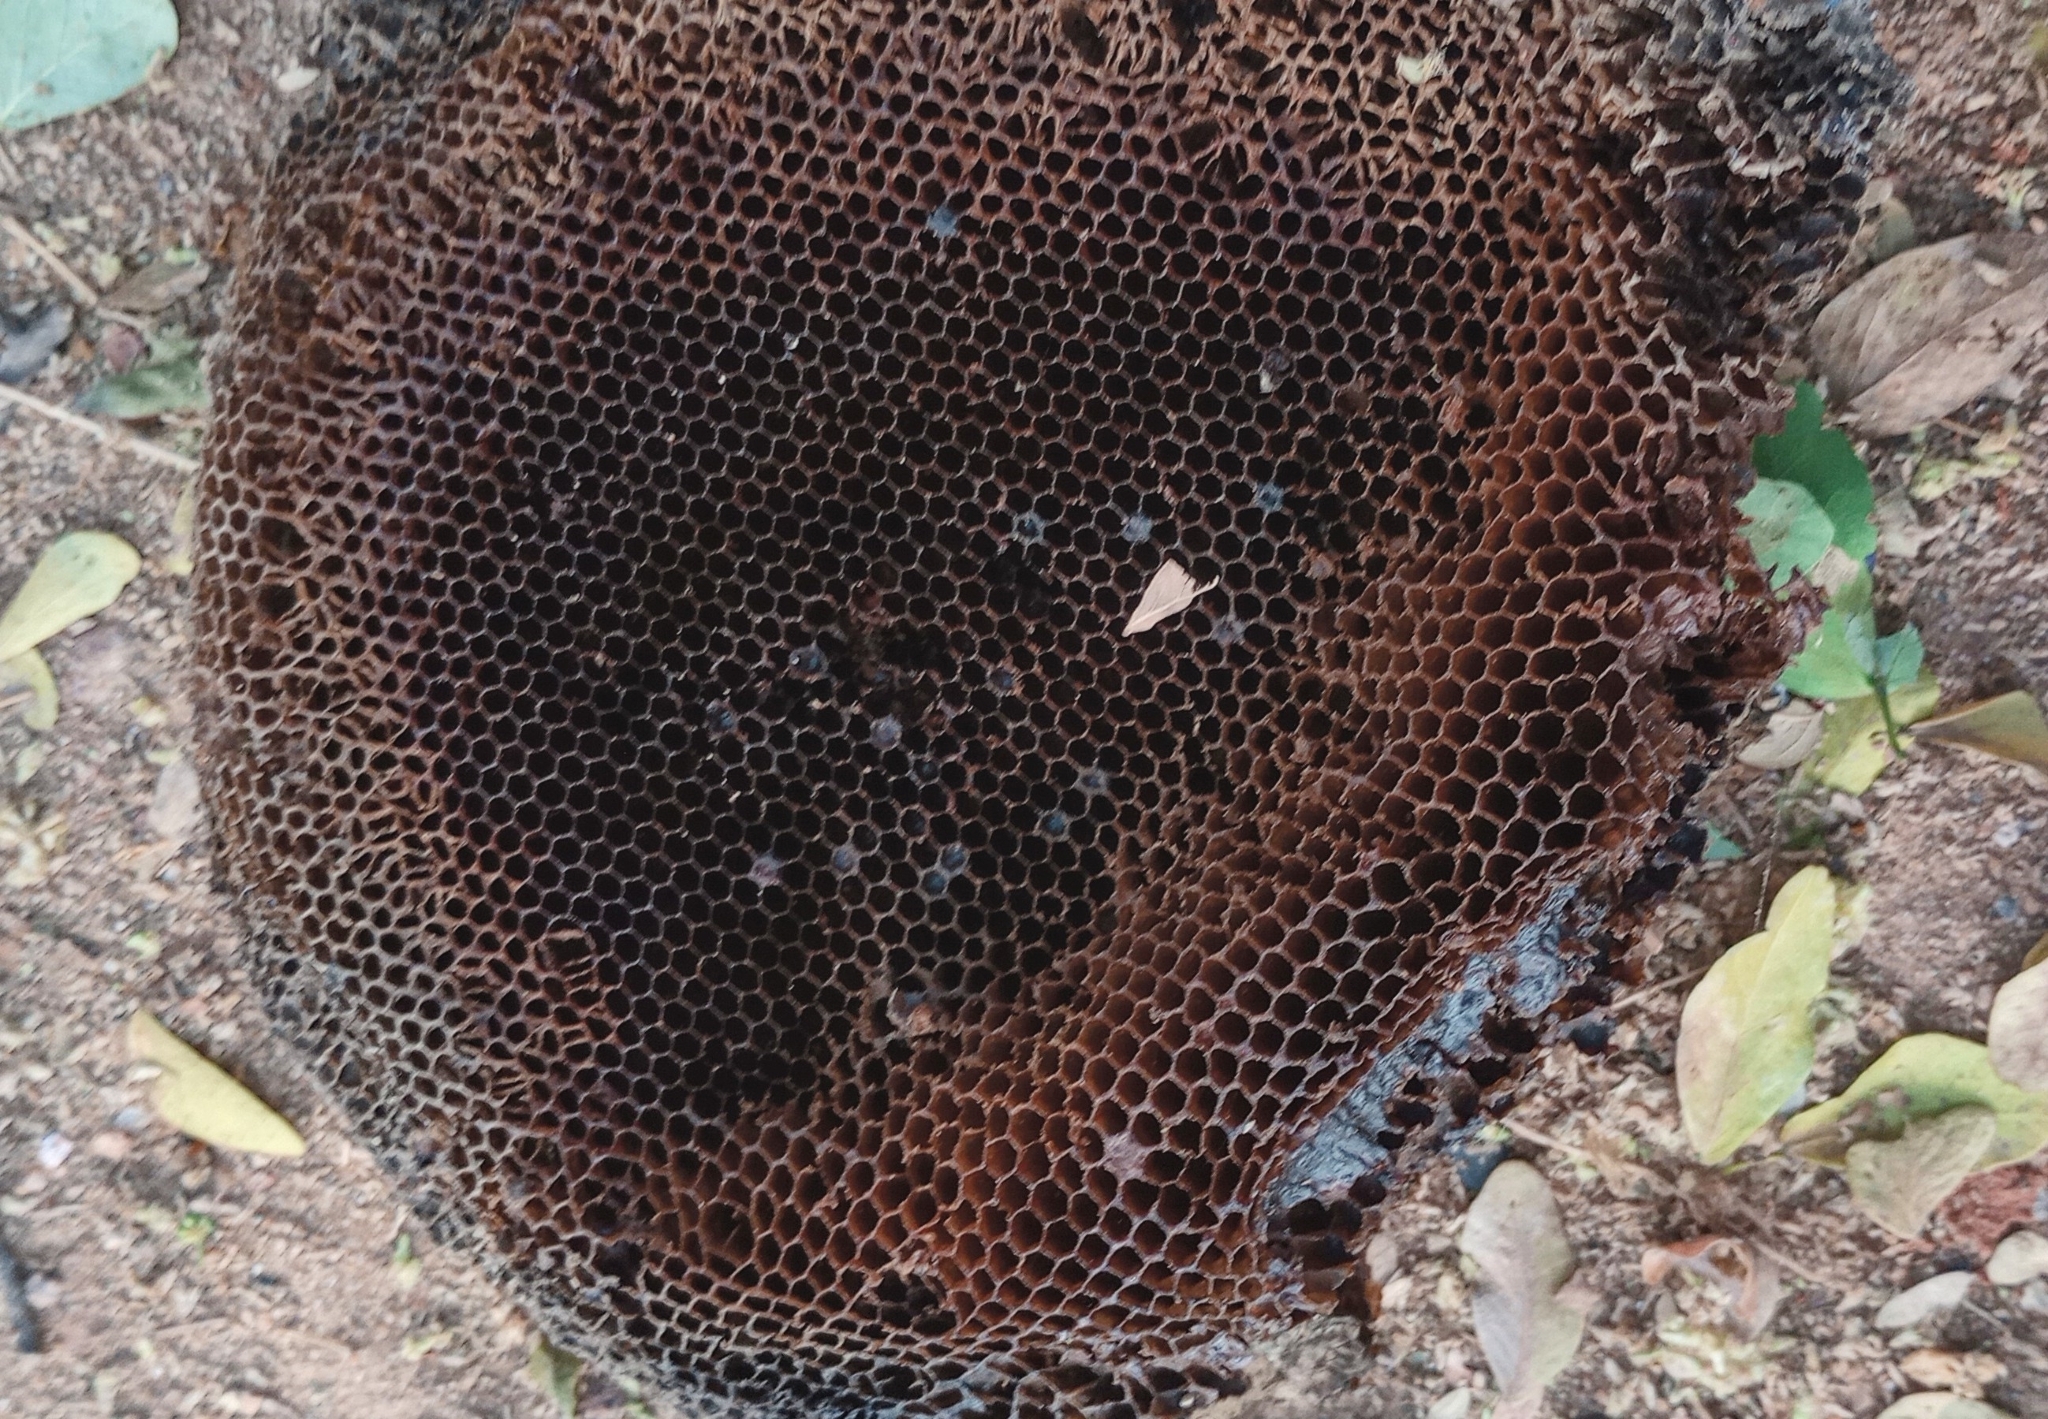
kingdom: Animalia
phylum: Arthropoda
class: Insecta
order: Hymenoptera
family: Apidae
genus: Apis
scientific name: Apis florea
